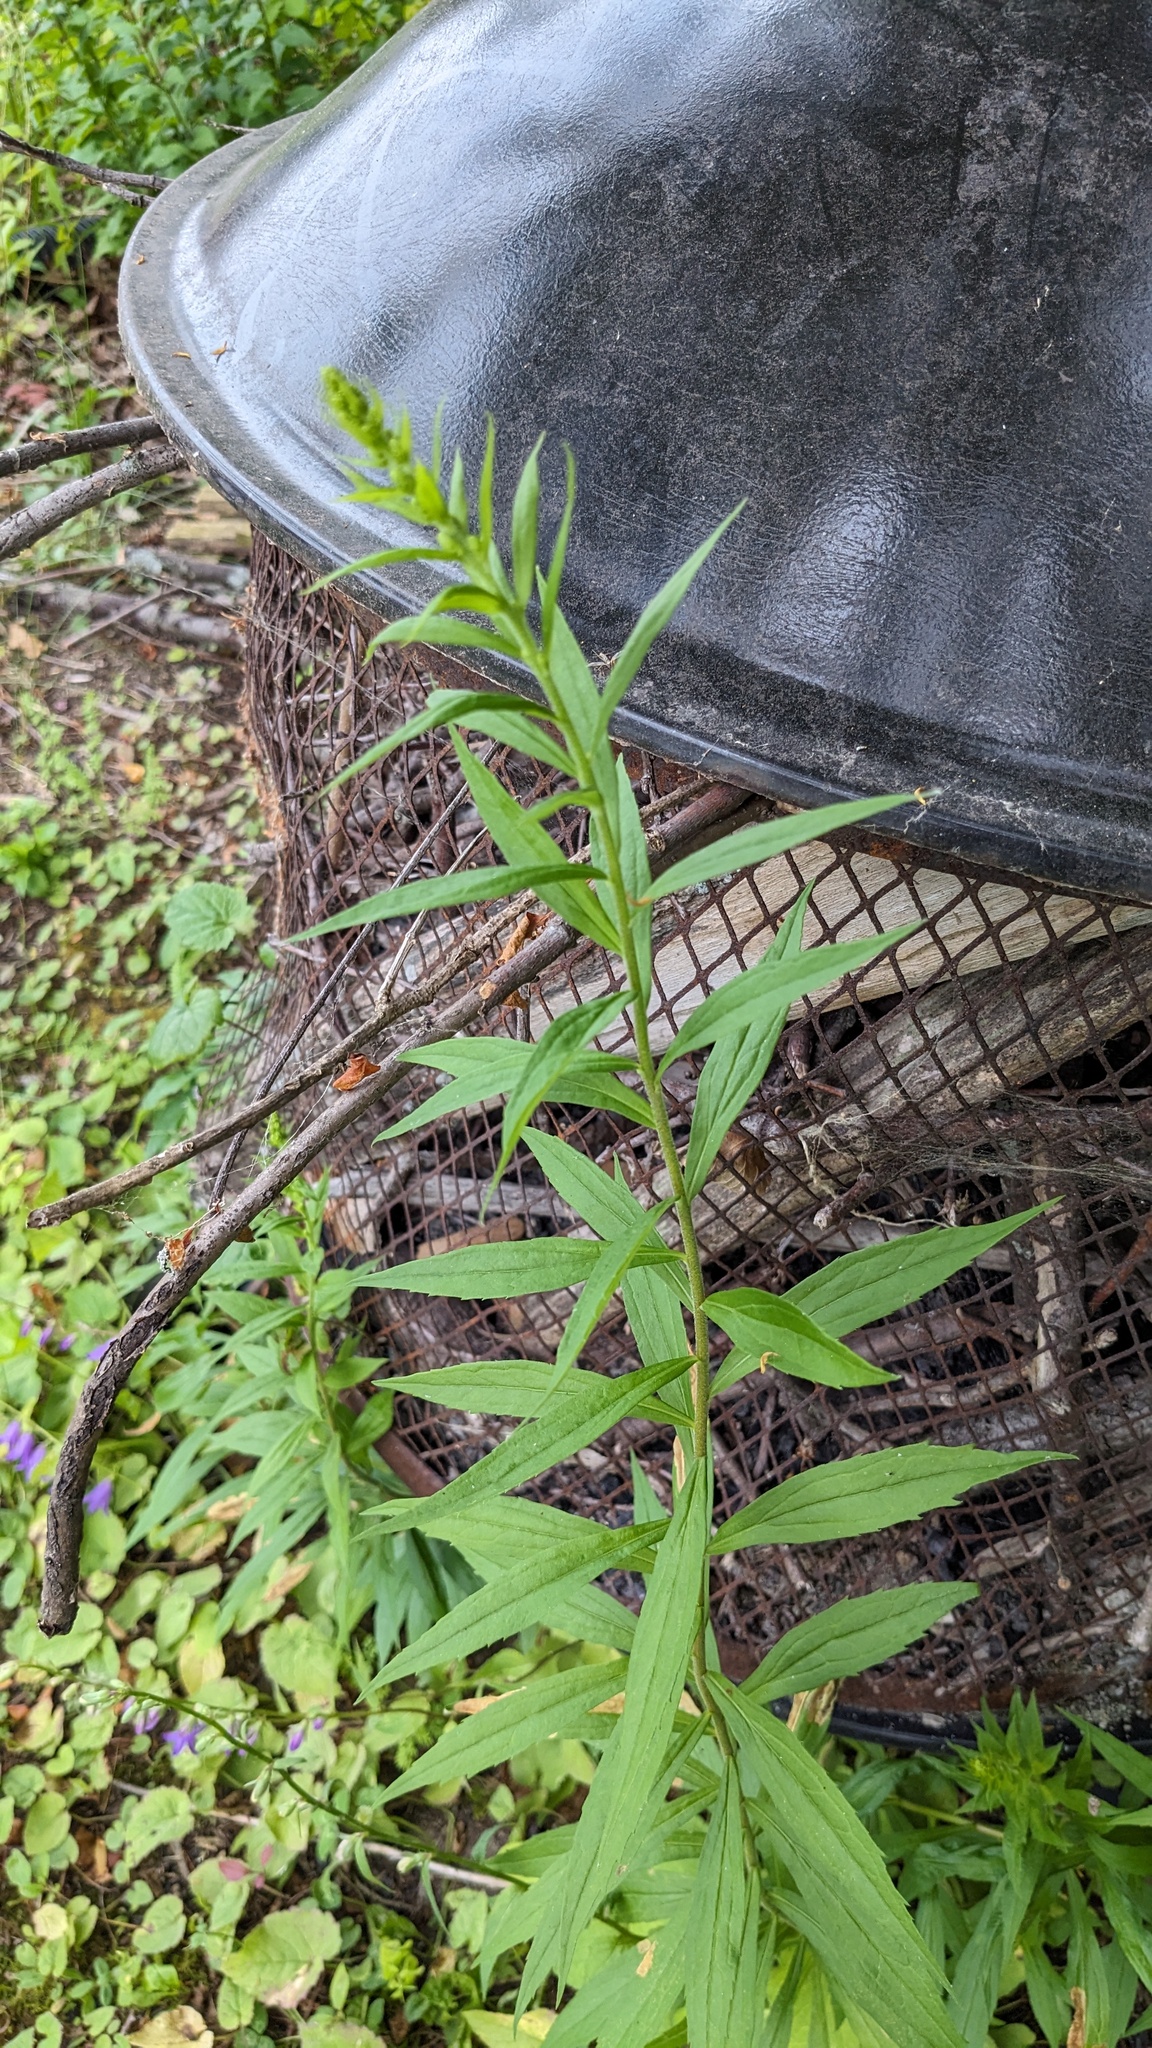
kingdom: Animalia
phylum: Arthropoda
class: Insecta
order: Diptera
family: Agromyzidae
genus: Nemorimyza
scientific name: Nemorimyza posticata
